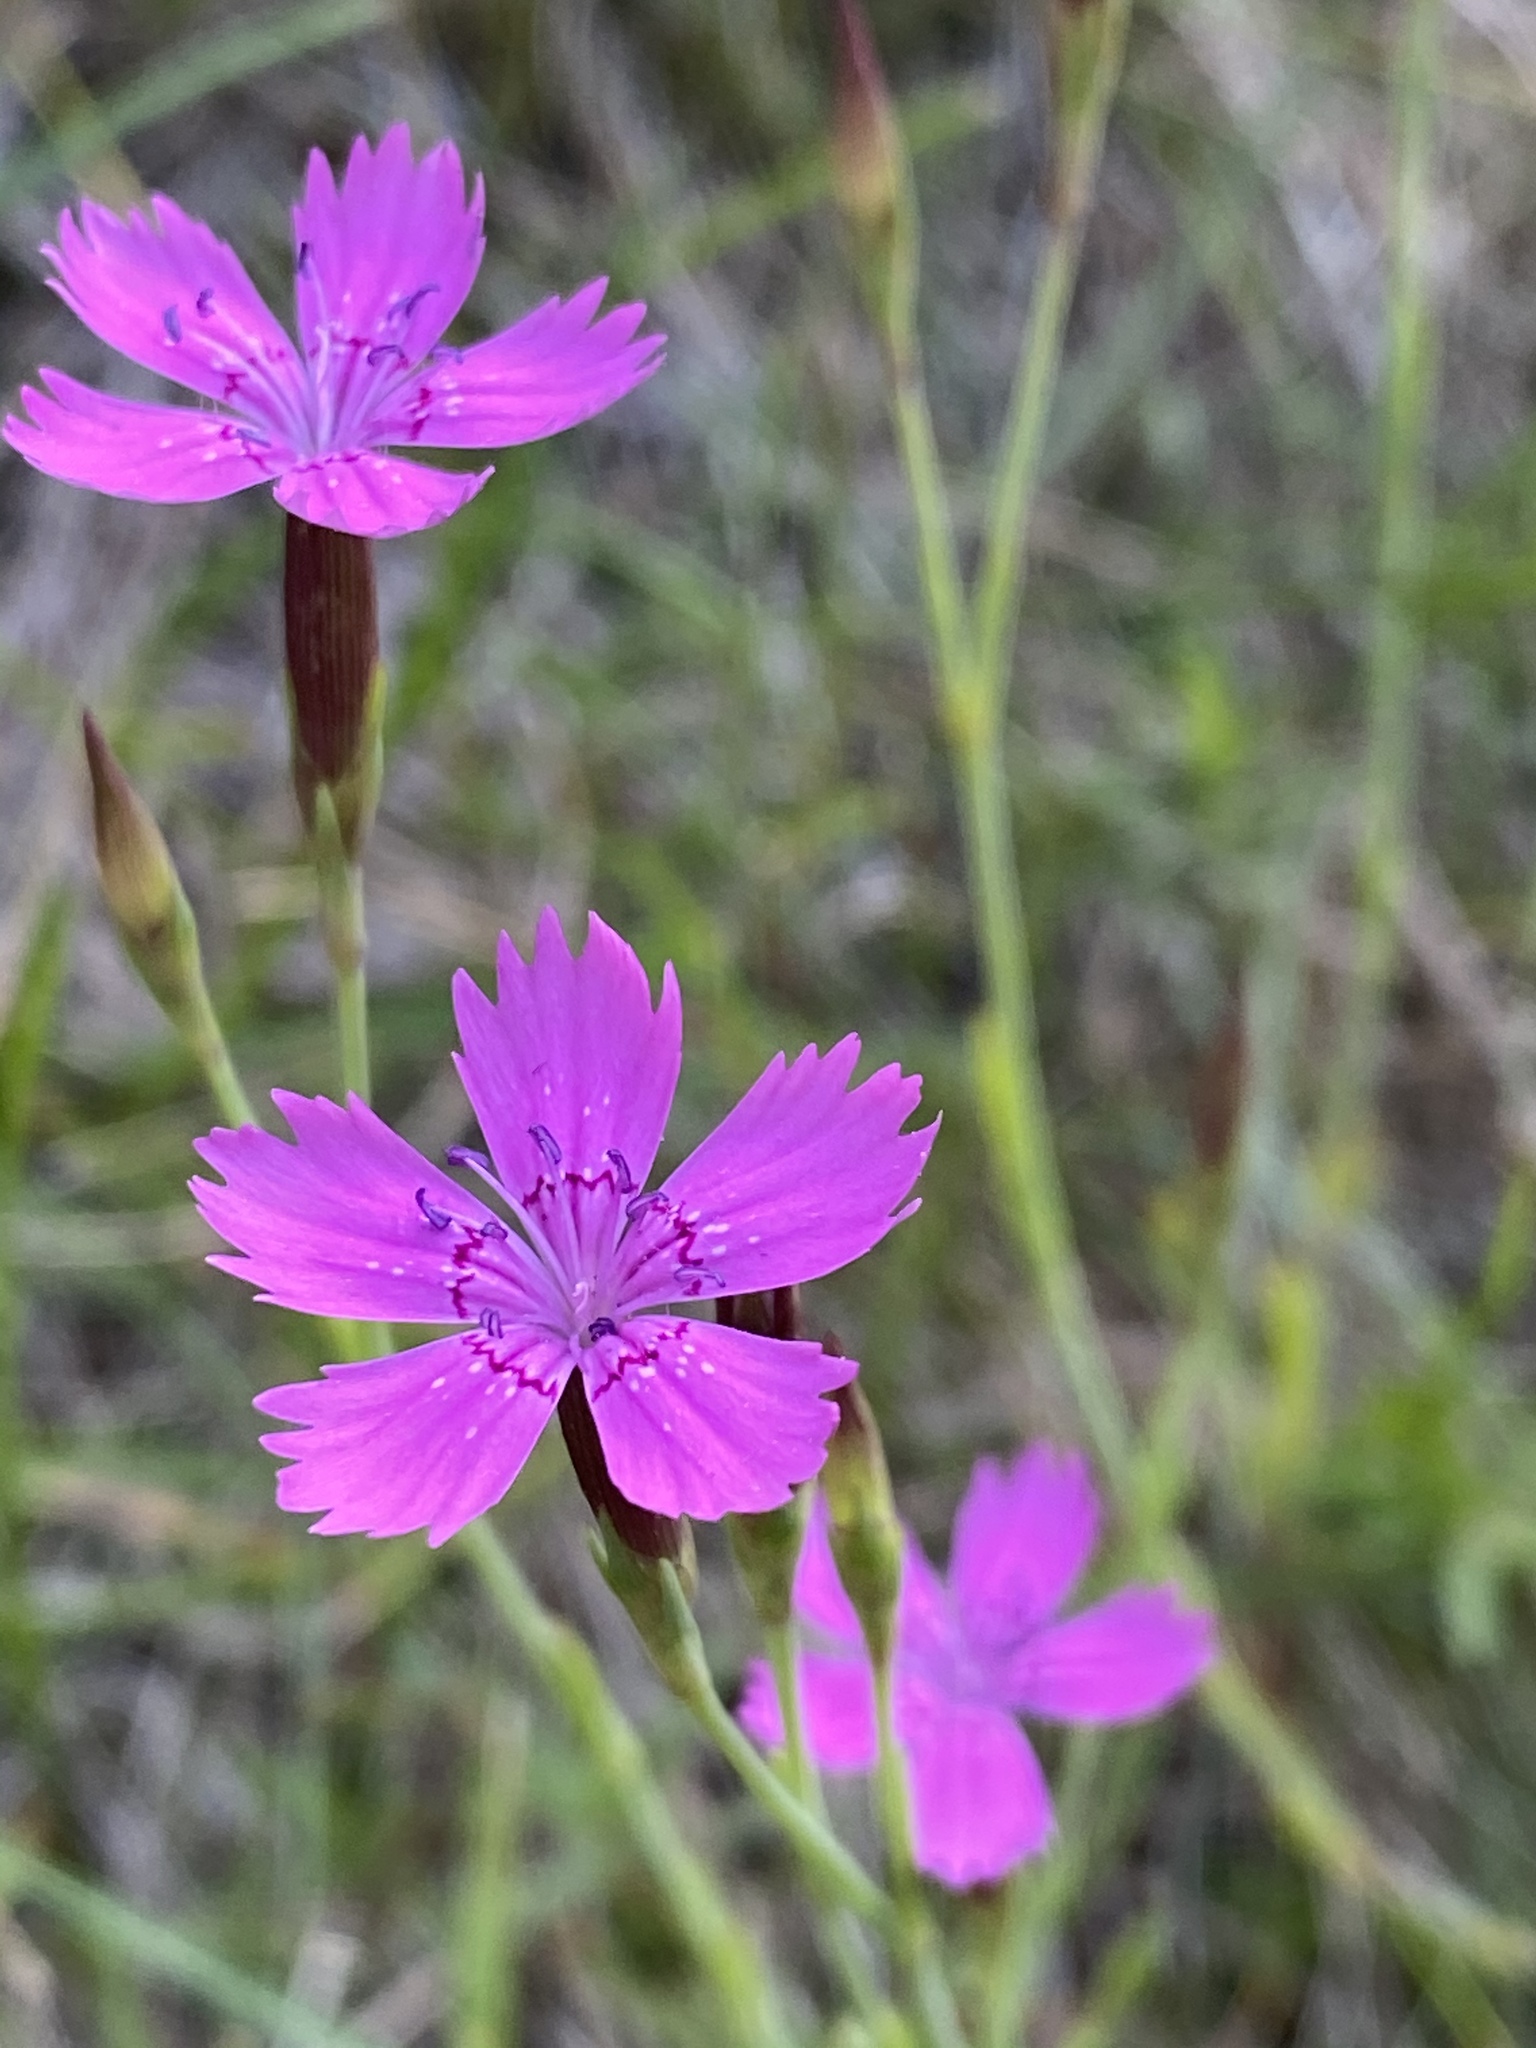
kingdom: Plantae
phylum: Tracheophyta
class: Magnoliopsida
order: Caryophyllales
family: Caryophyllaceae
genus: Dianthus
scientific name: Dianthus deltoides
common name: Maiden pink
